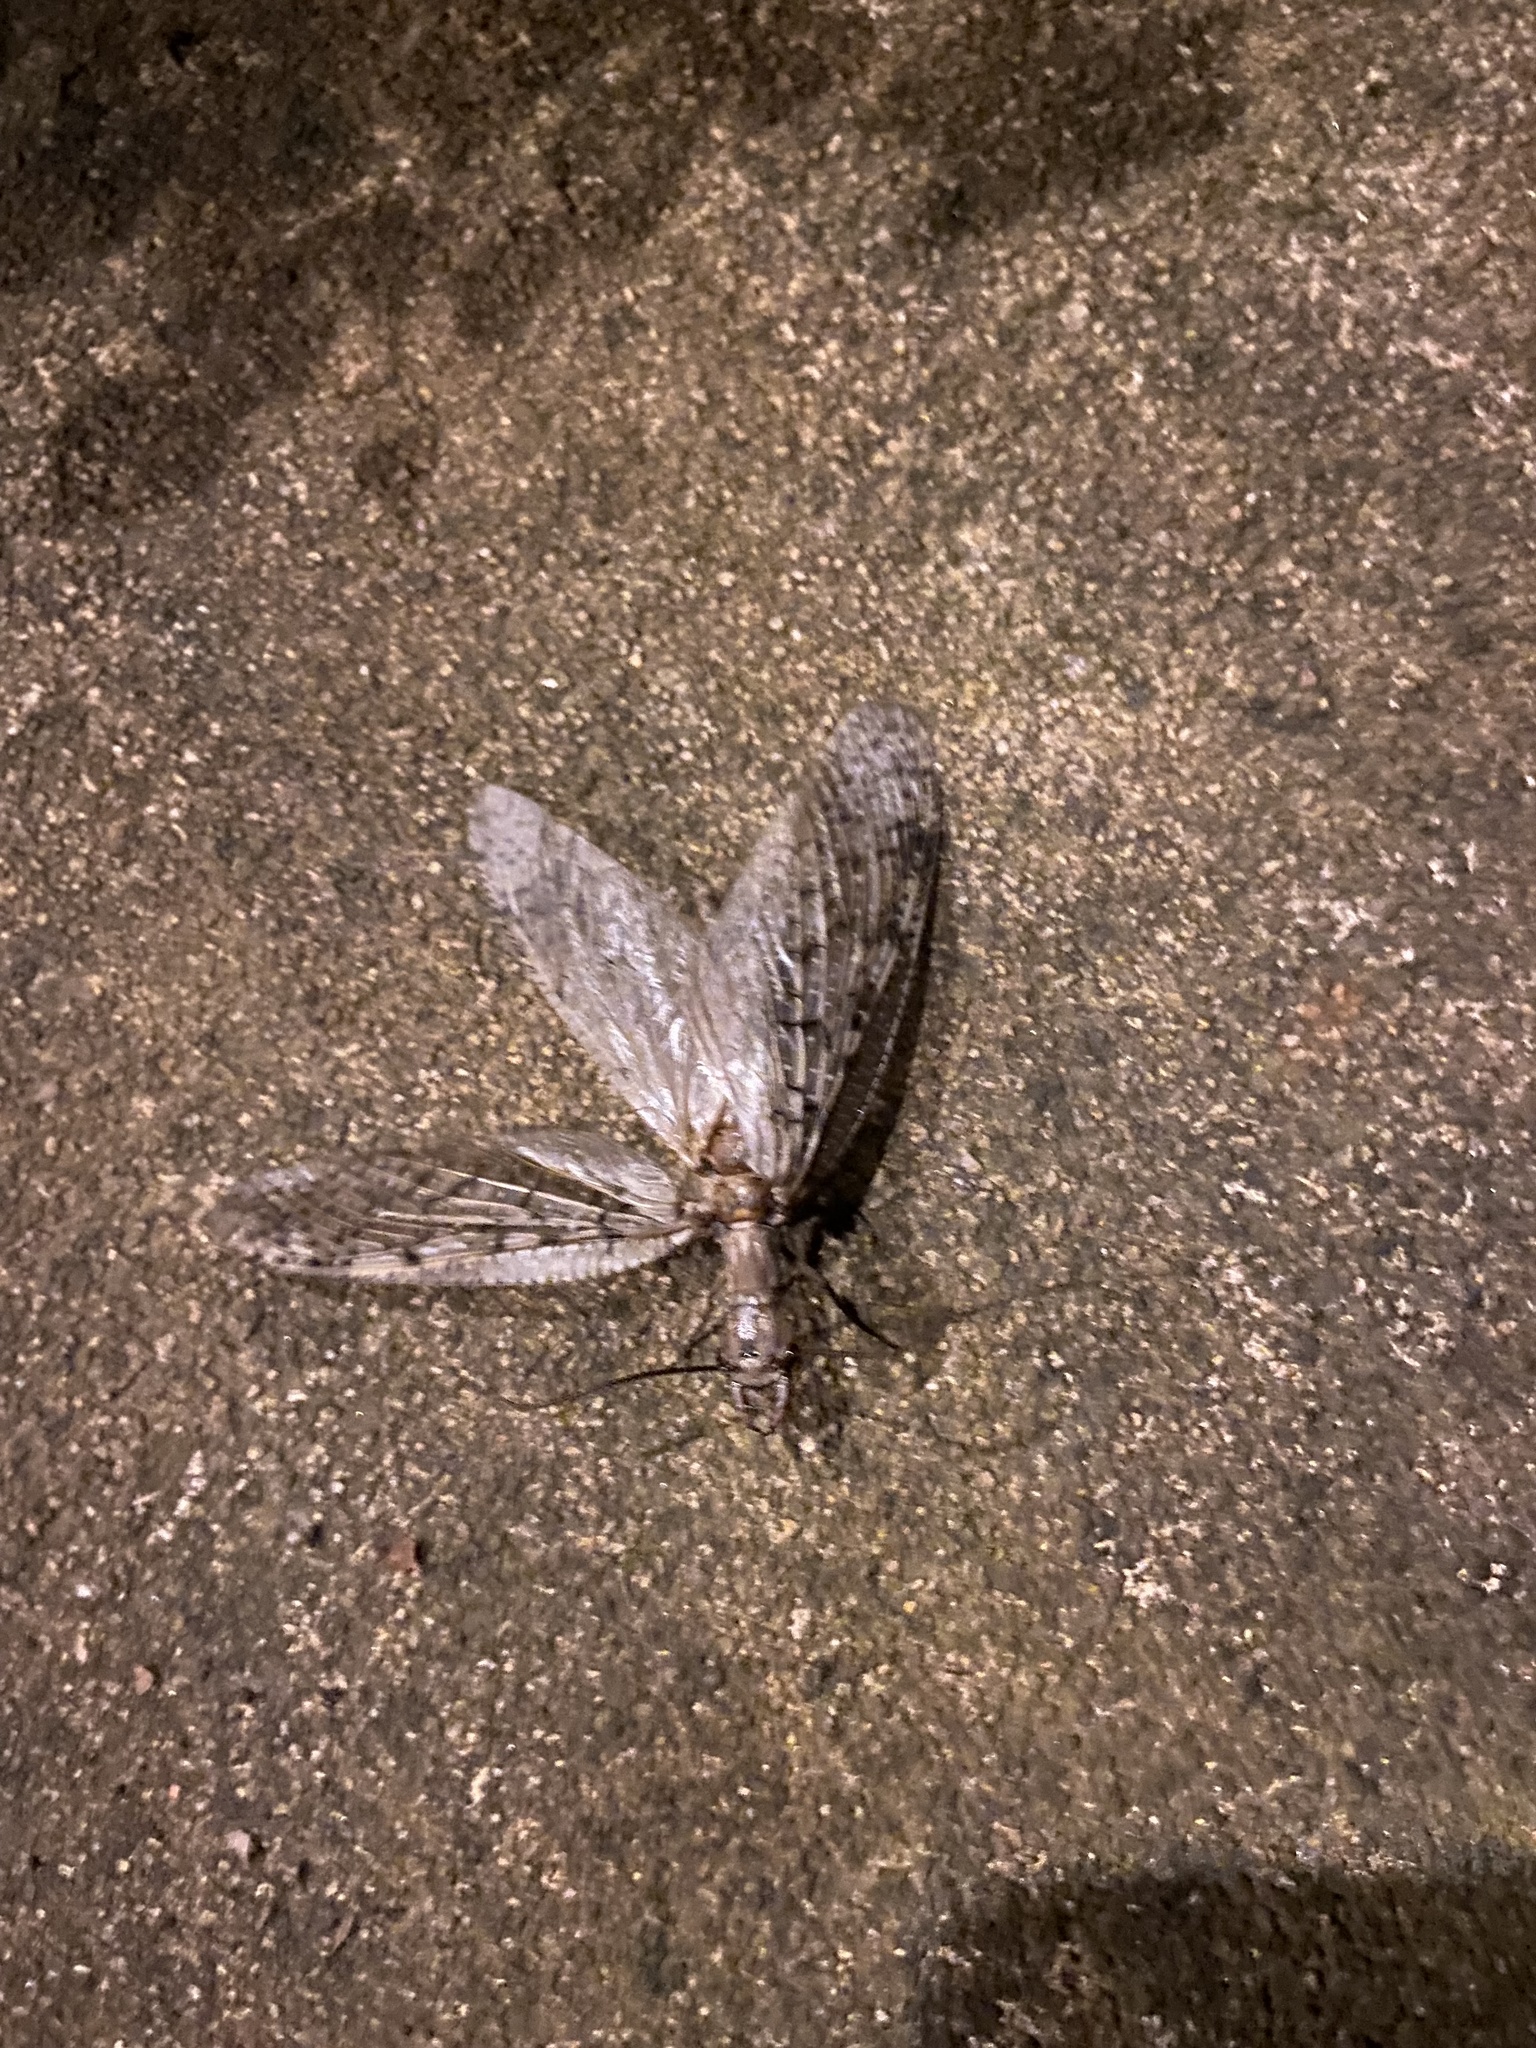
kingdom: Animalia
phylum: Arthropoda
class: Insecta
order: Megaloptera
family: Corydalidae
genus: Corydalus
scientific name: Corydalus cornutus
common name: Dobsonfly
